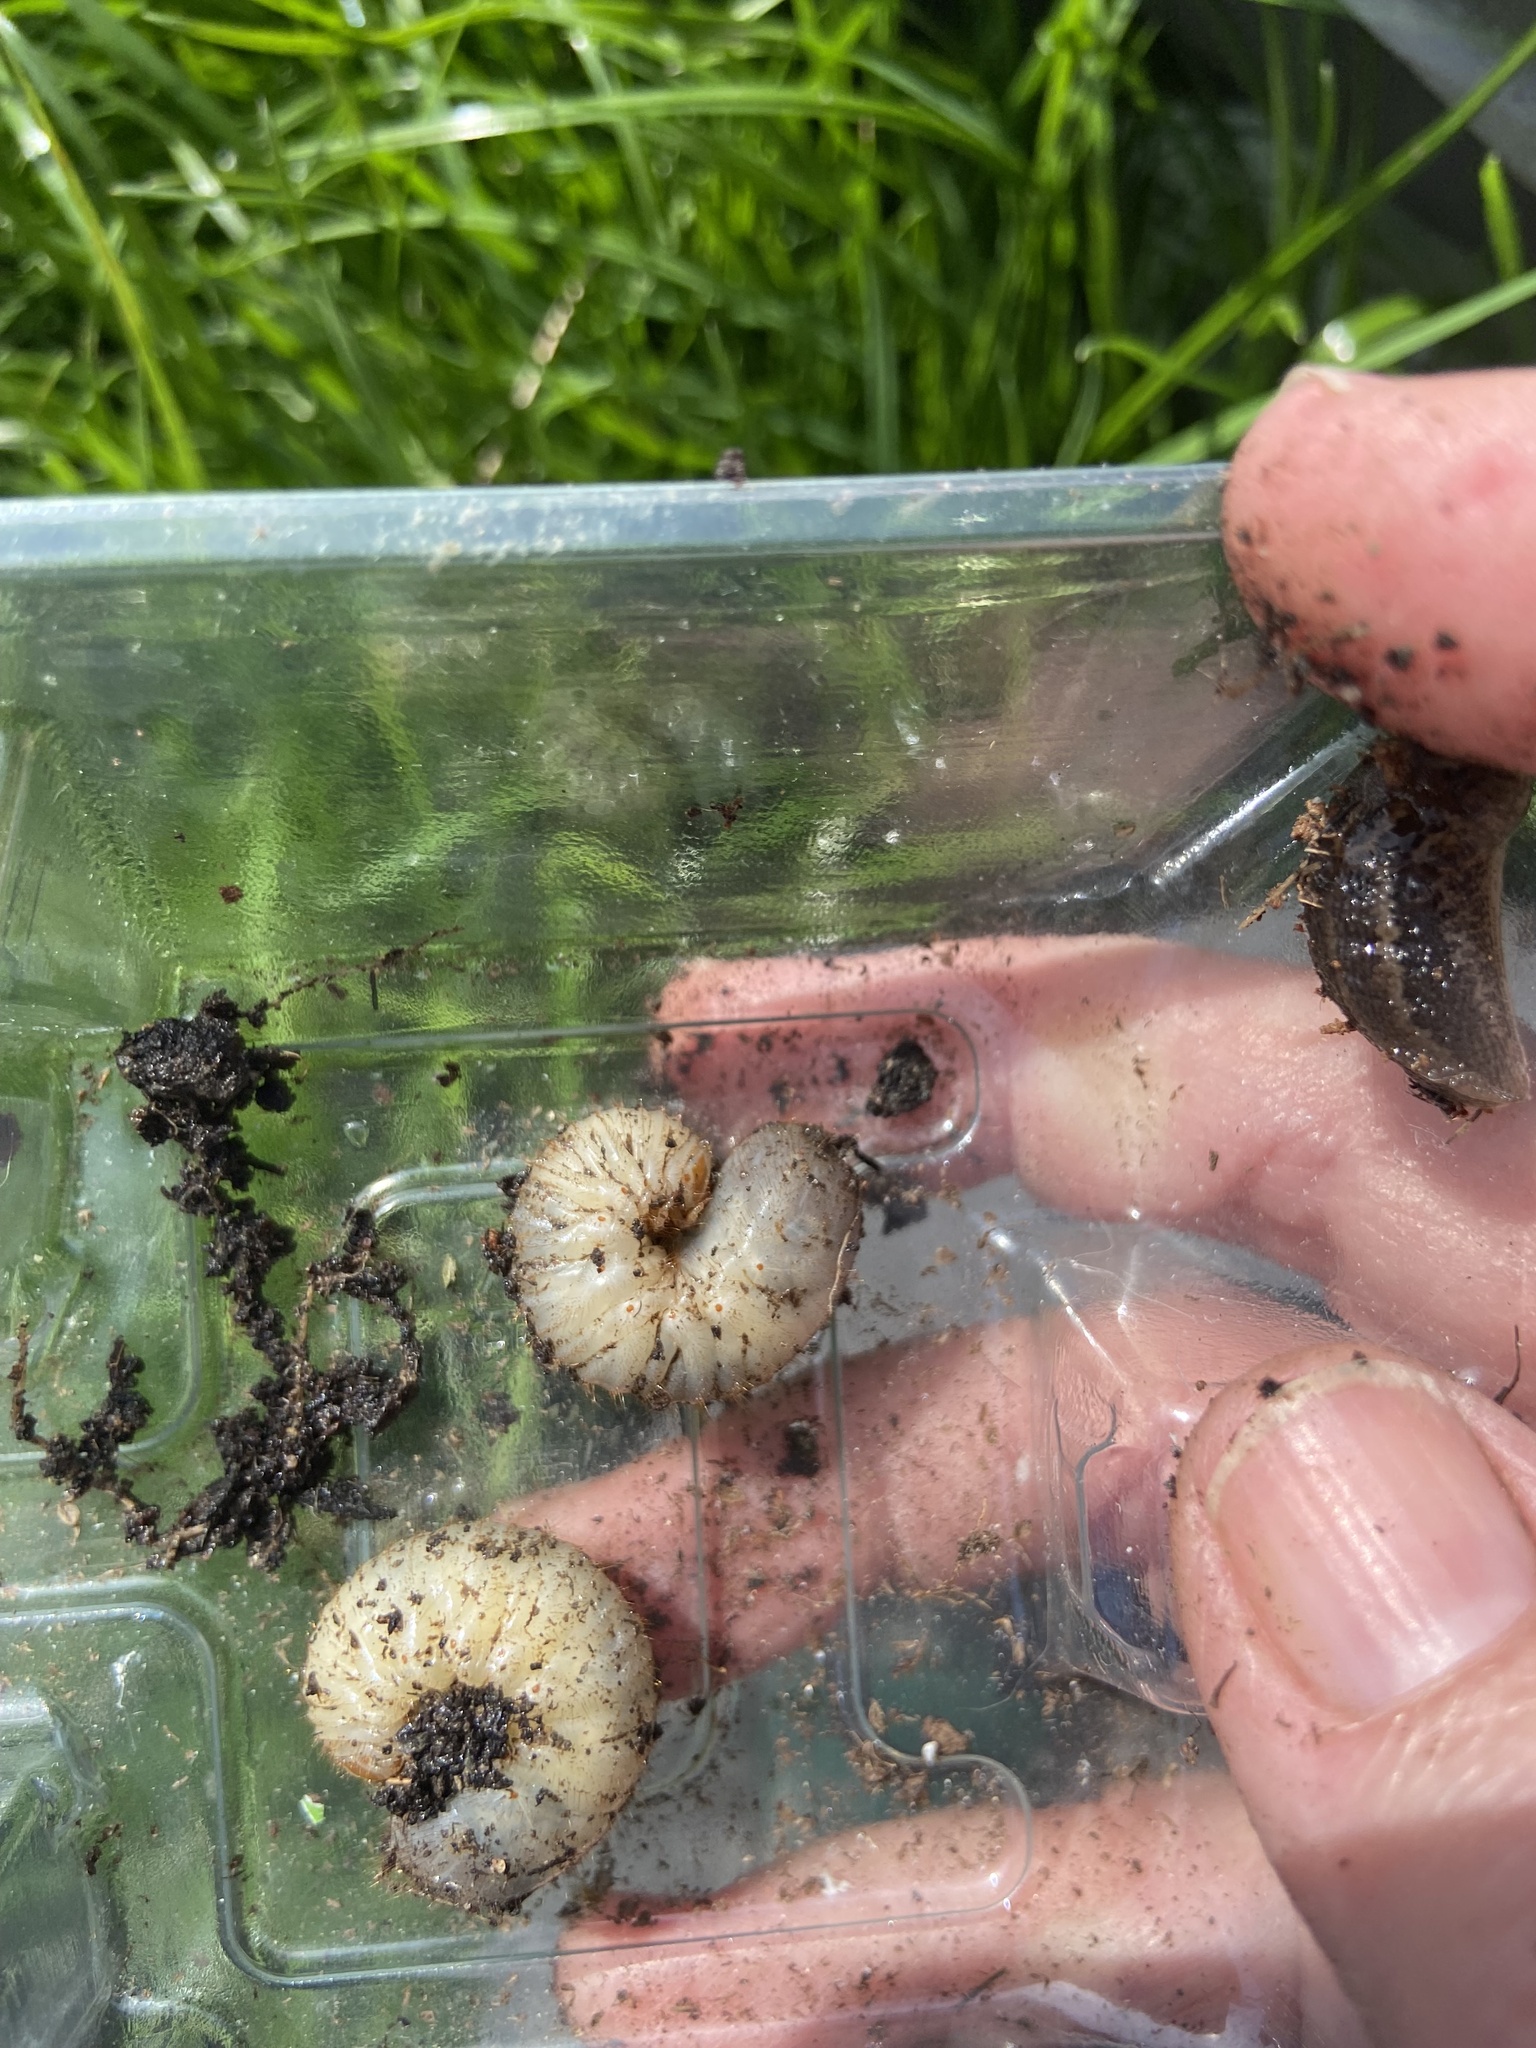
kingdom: Animalia
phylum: Arthropoda
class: Insecta
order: Coleoptera
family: Scarabaeidae
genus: Cetonia
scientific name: Cetonia aurata
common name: Rose chafer
